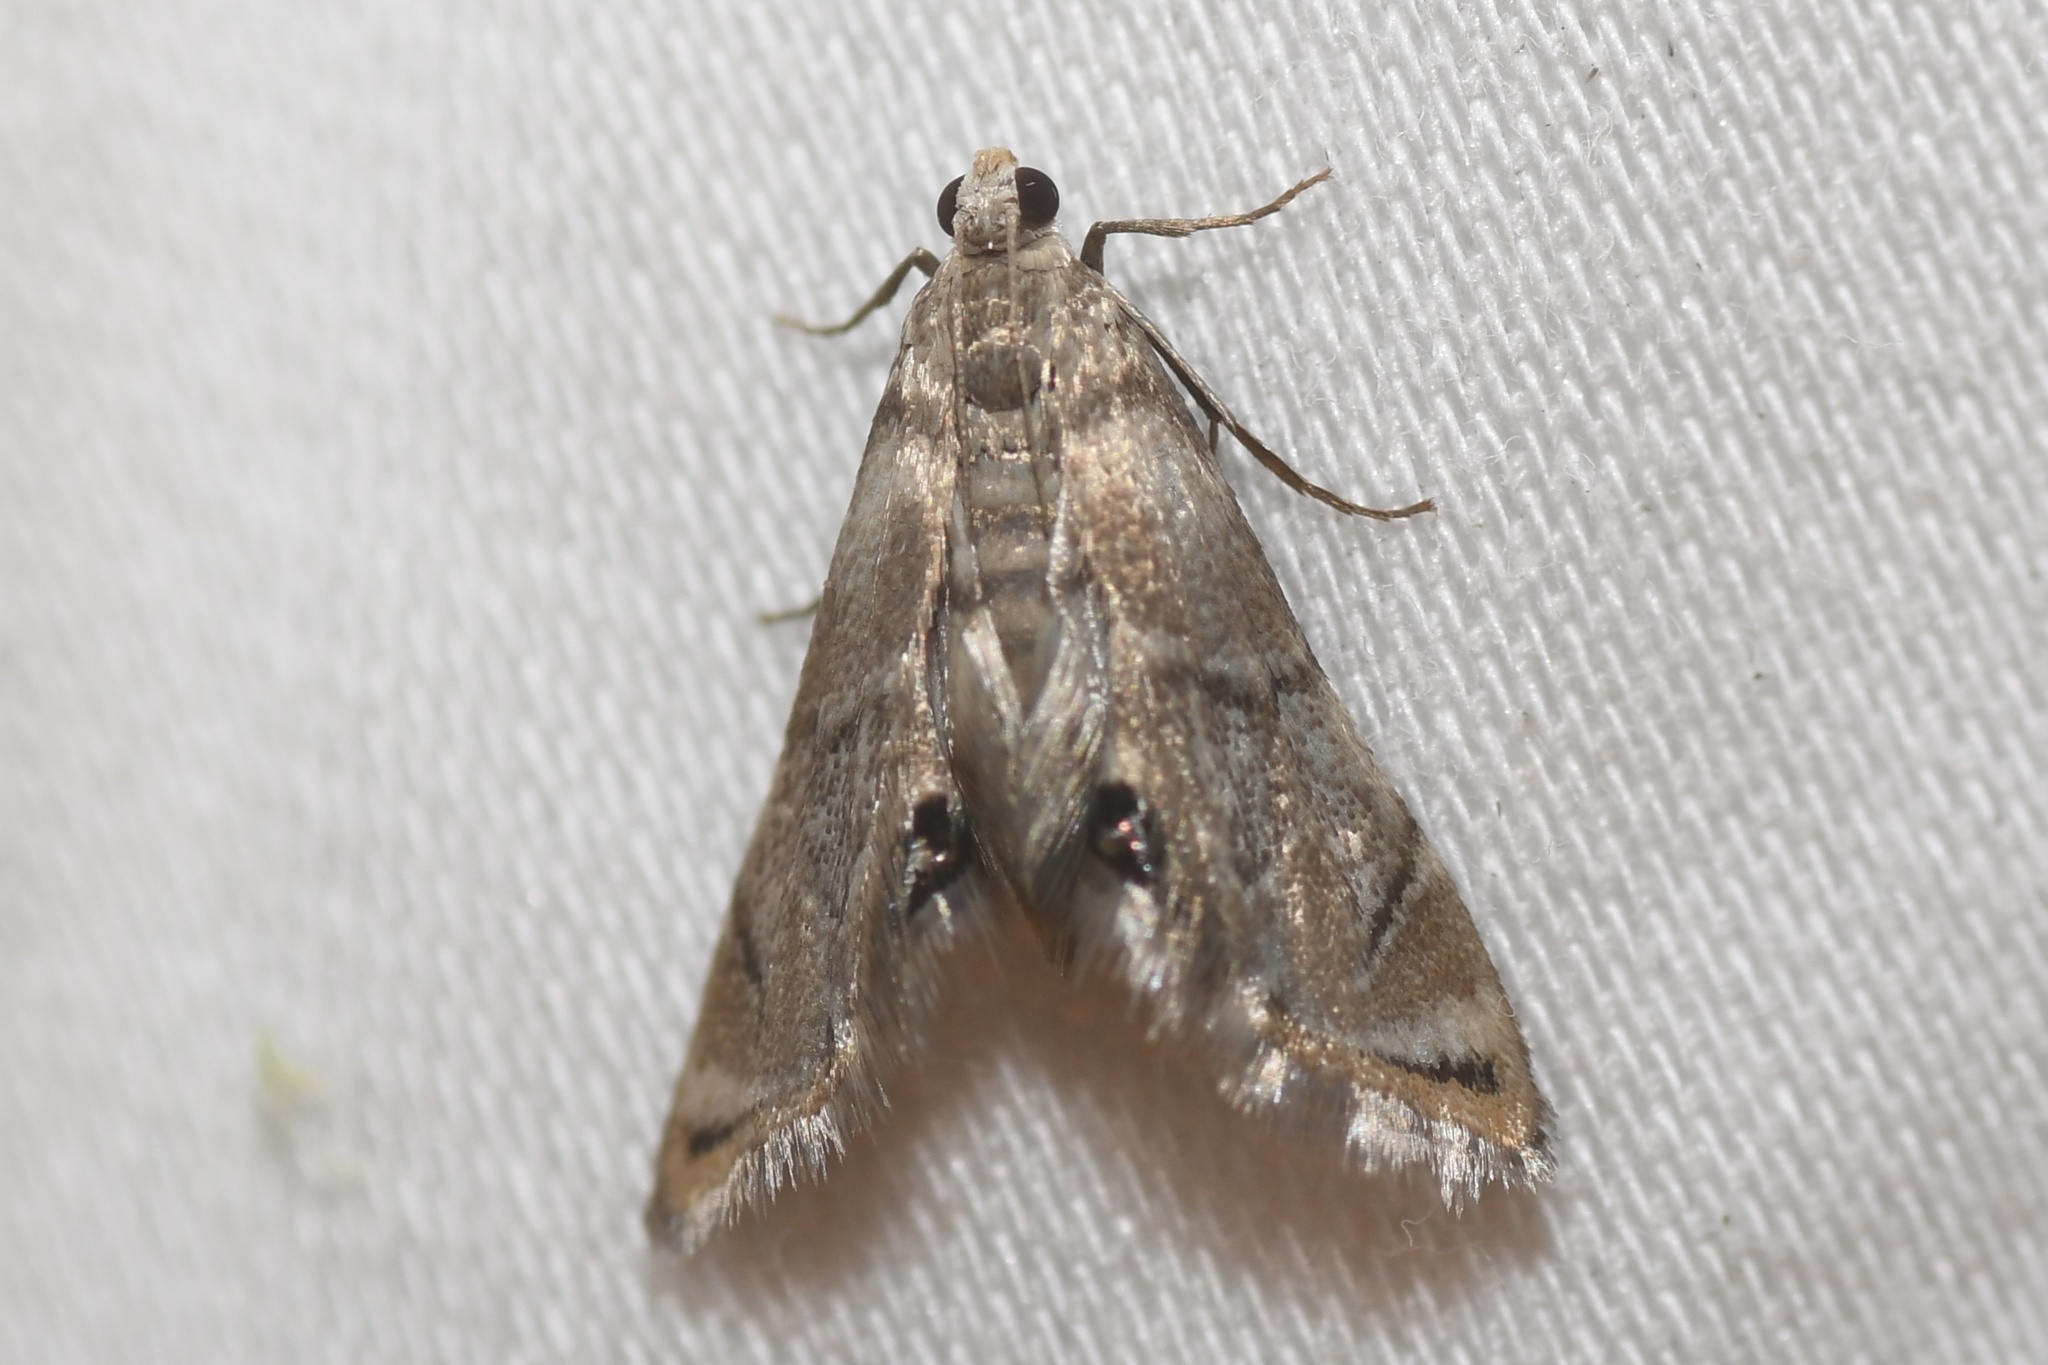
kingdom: Animalia
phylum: Arthropoda
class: Insecta
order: Lepidoptera
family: Crambidae
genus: Eoparargyractis
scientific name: Eoparargyractis plevie
